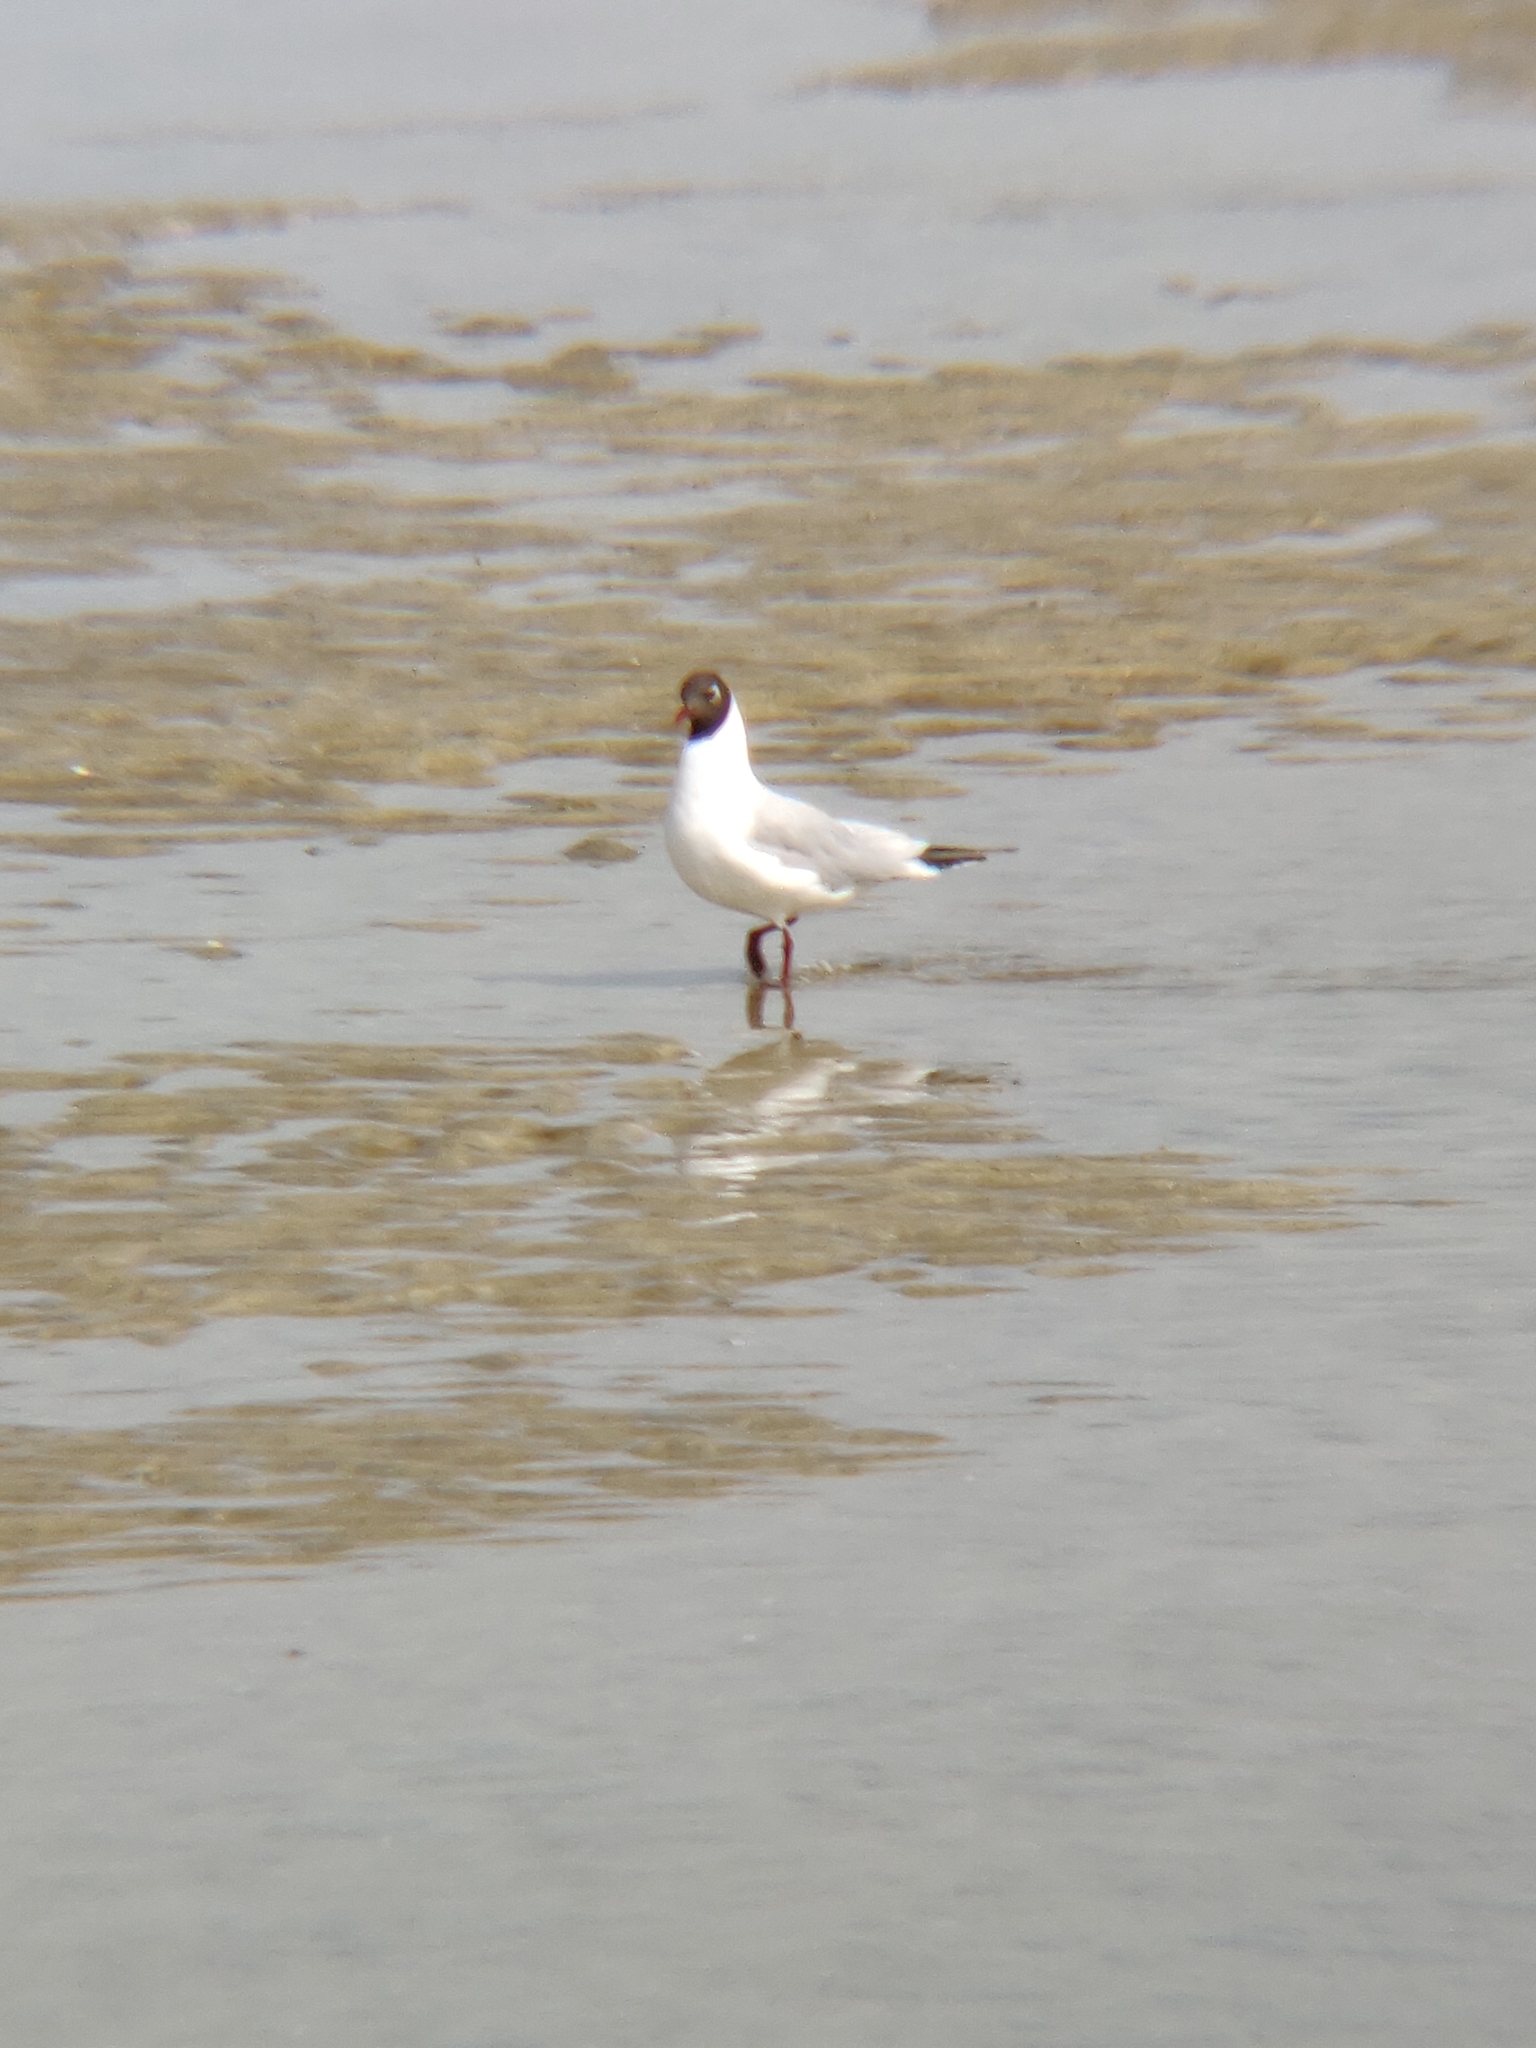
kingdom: Animalia
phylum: Chordata
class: Aves
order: Charadriiformes
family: Laridae
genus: Chroicocephalus
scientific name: Chroicocephalus ridibundus
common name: Black-headed gull
